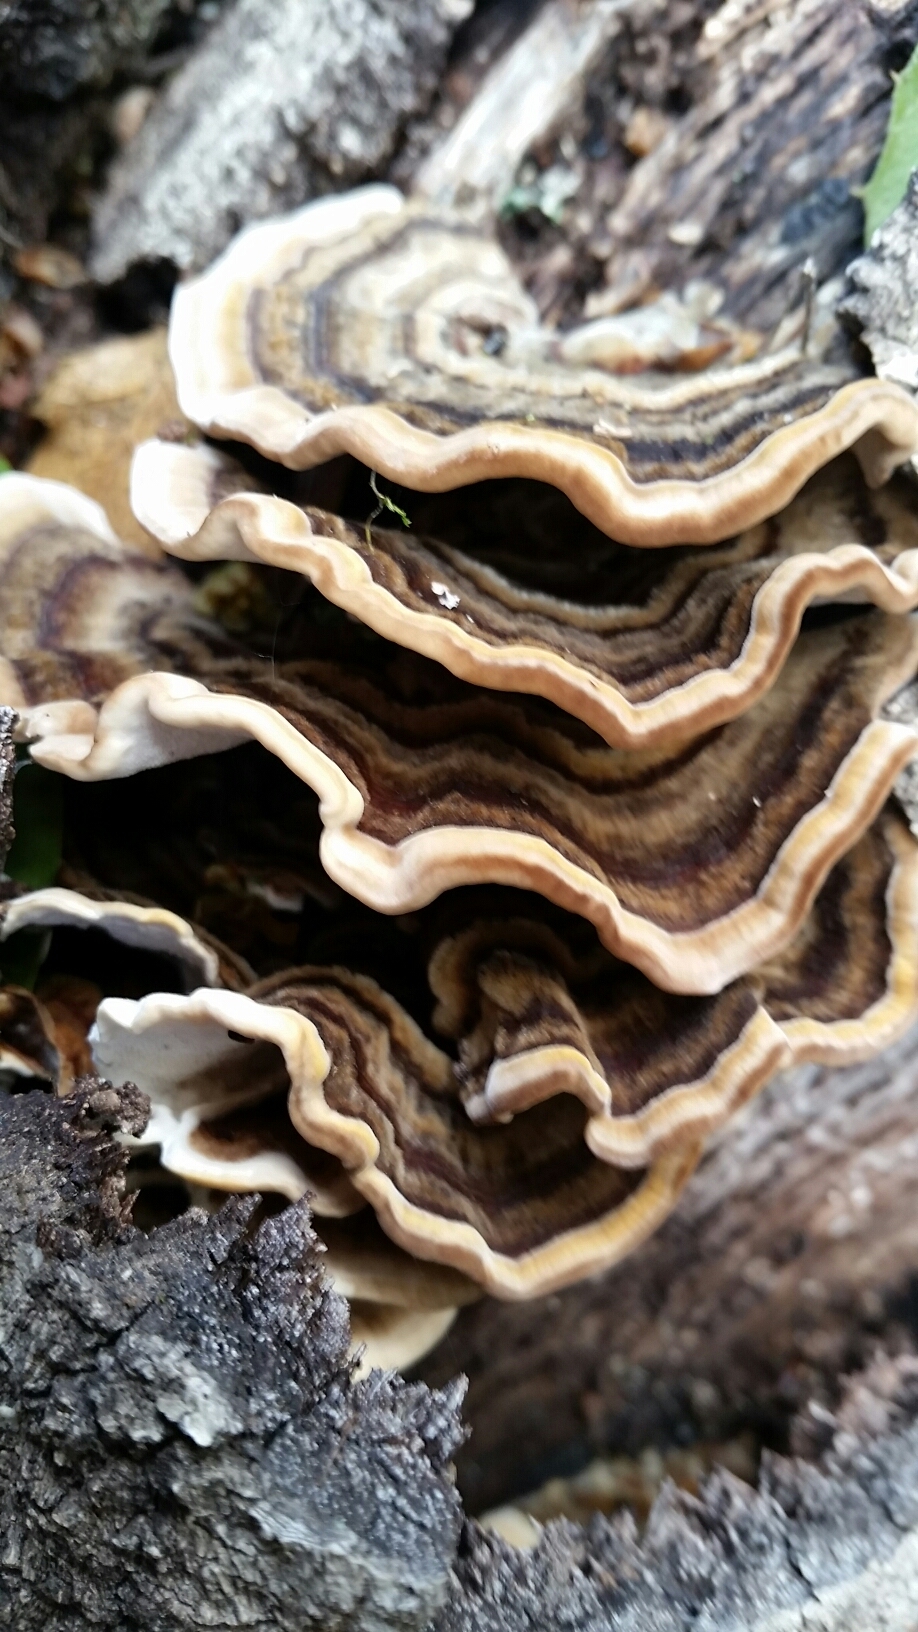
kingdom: Fungi
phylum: Basidiomycota
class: Agaricomycetes
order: Polyporales
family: Polyporaceae
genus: Trametes
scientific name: Trametes versicolor
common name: Turkeytail
